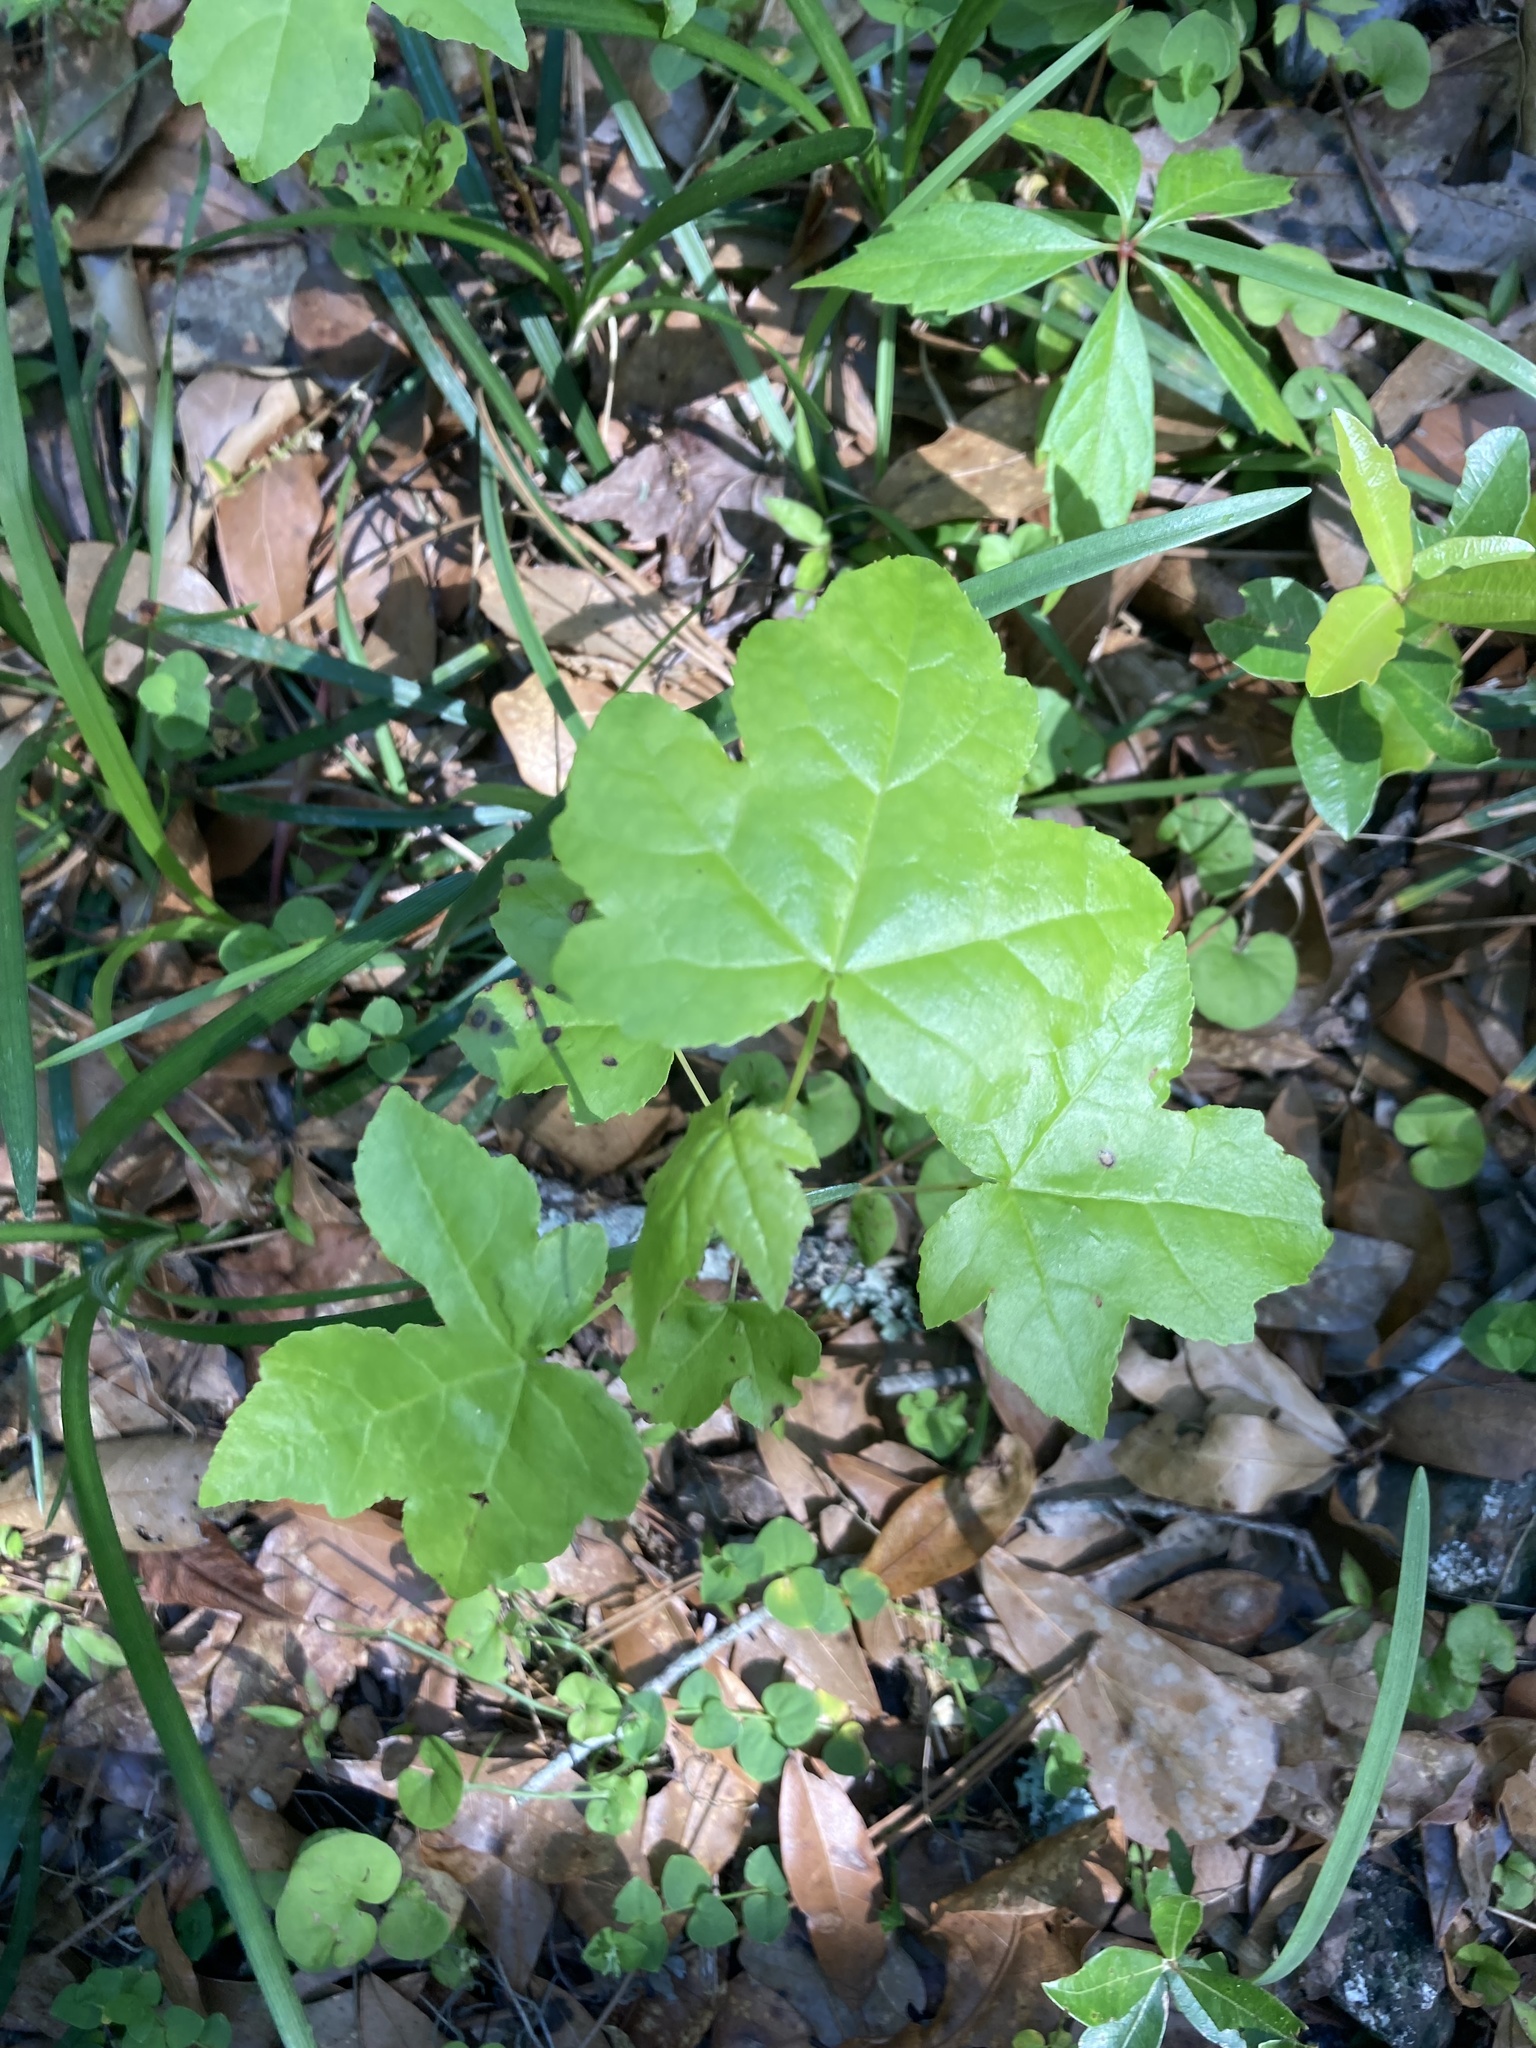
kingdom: Plantae
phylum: Tracheophyta
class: Magnoliopsida
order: Saxifragales
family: Altingiaceae
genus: Liquidambar
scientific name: Liquidambar styraciflua
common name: Sweet gum
